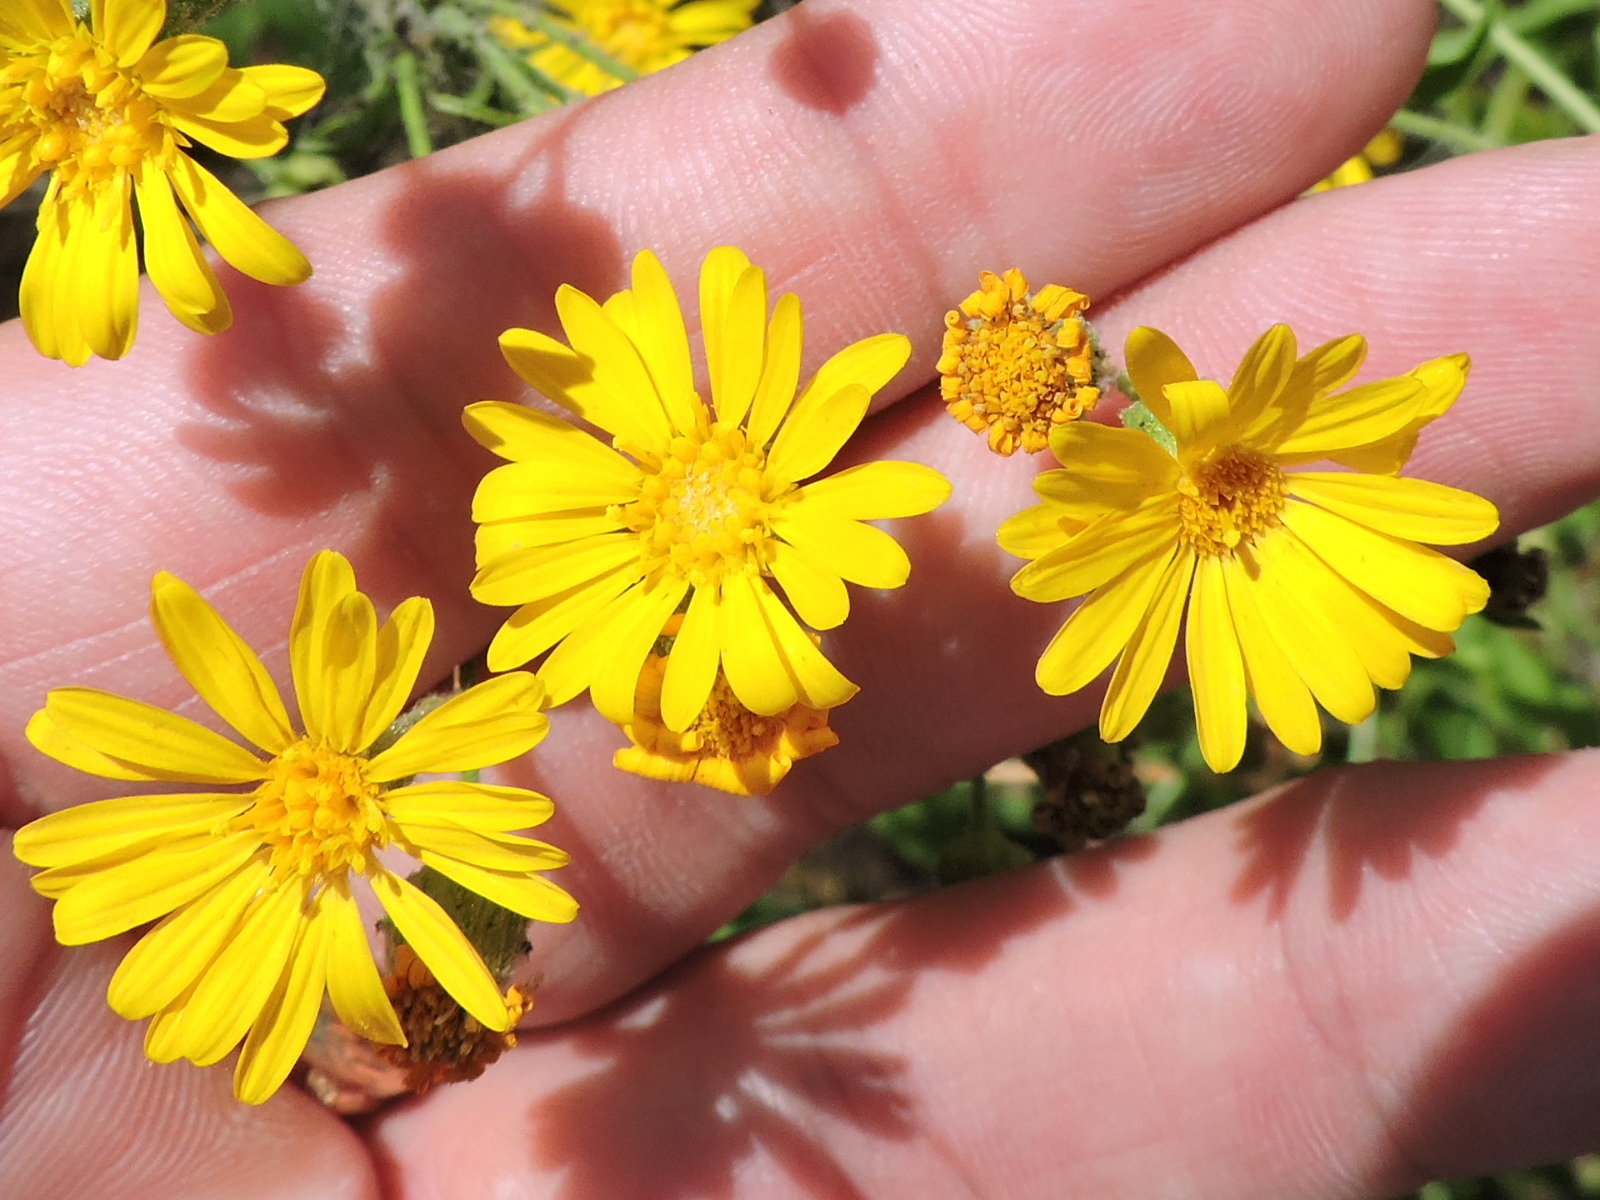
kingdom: Plantae
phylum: Tracheophyta
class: Magnoliopsida
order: Asterales
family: Asteraceae
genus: Heterotheca
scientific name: Heterotheca subaxillaris
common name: Camphorweed
